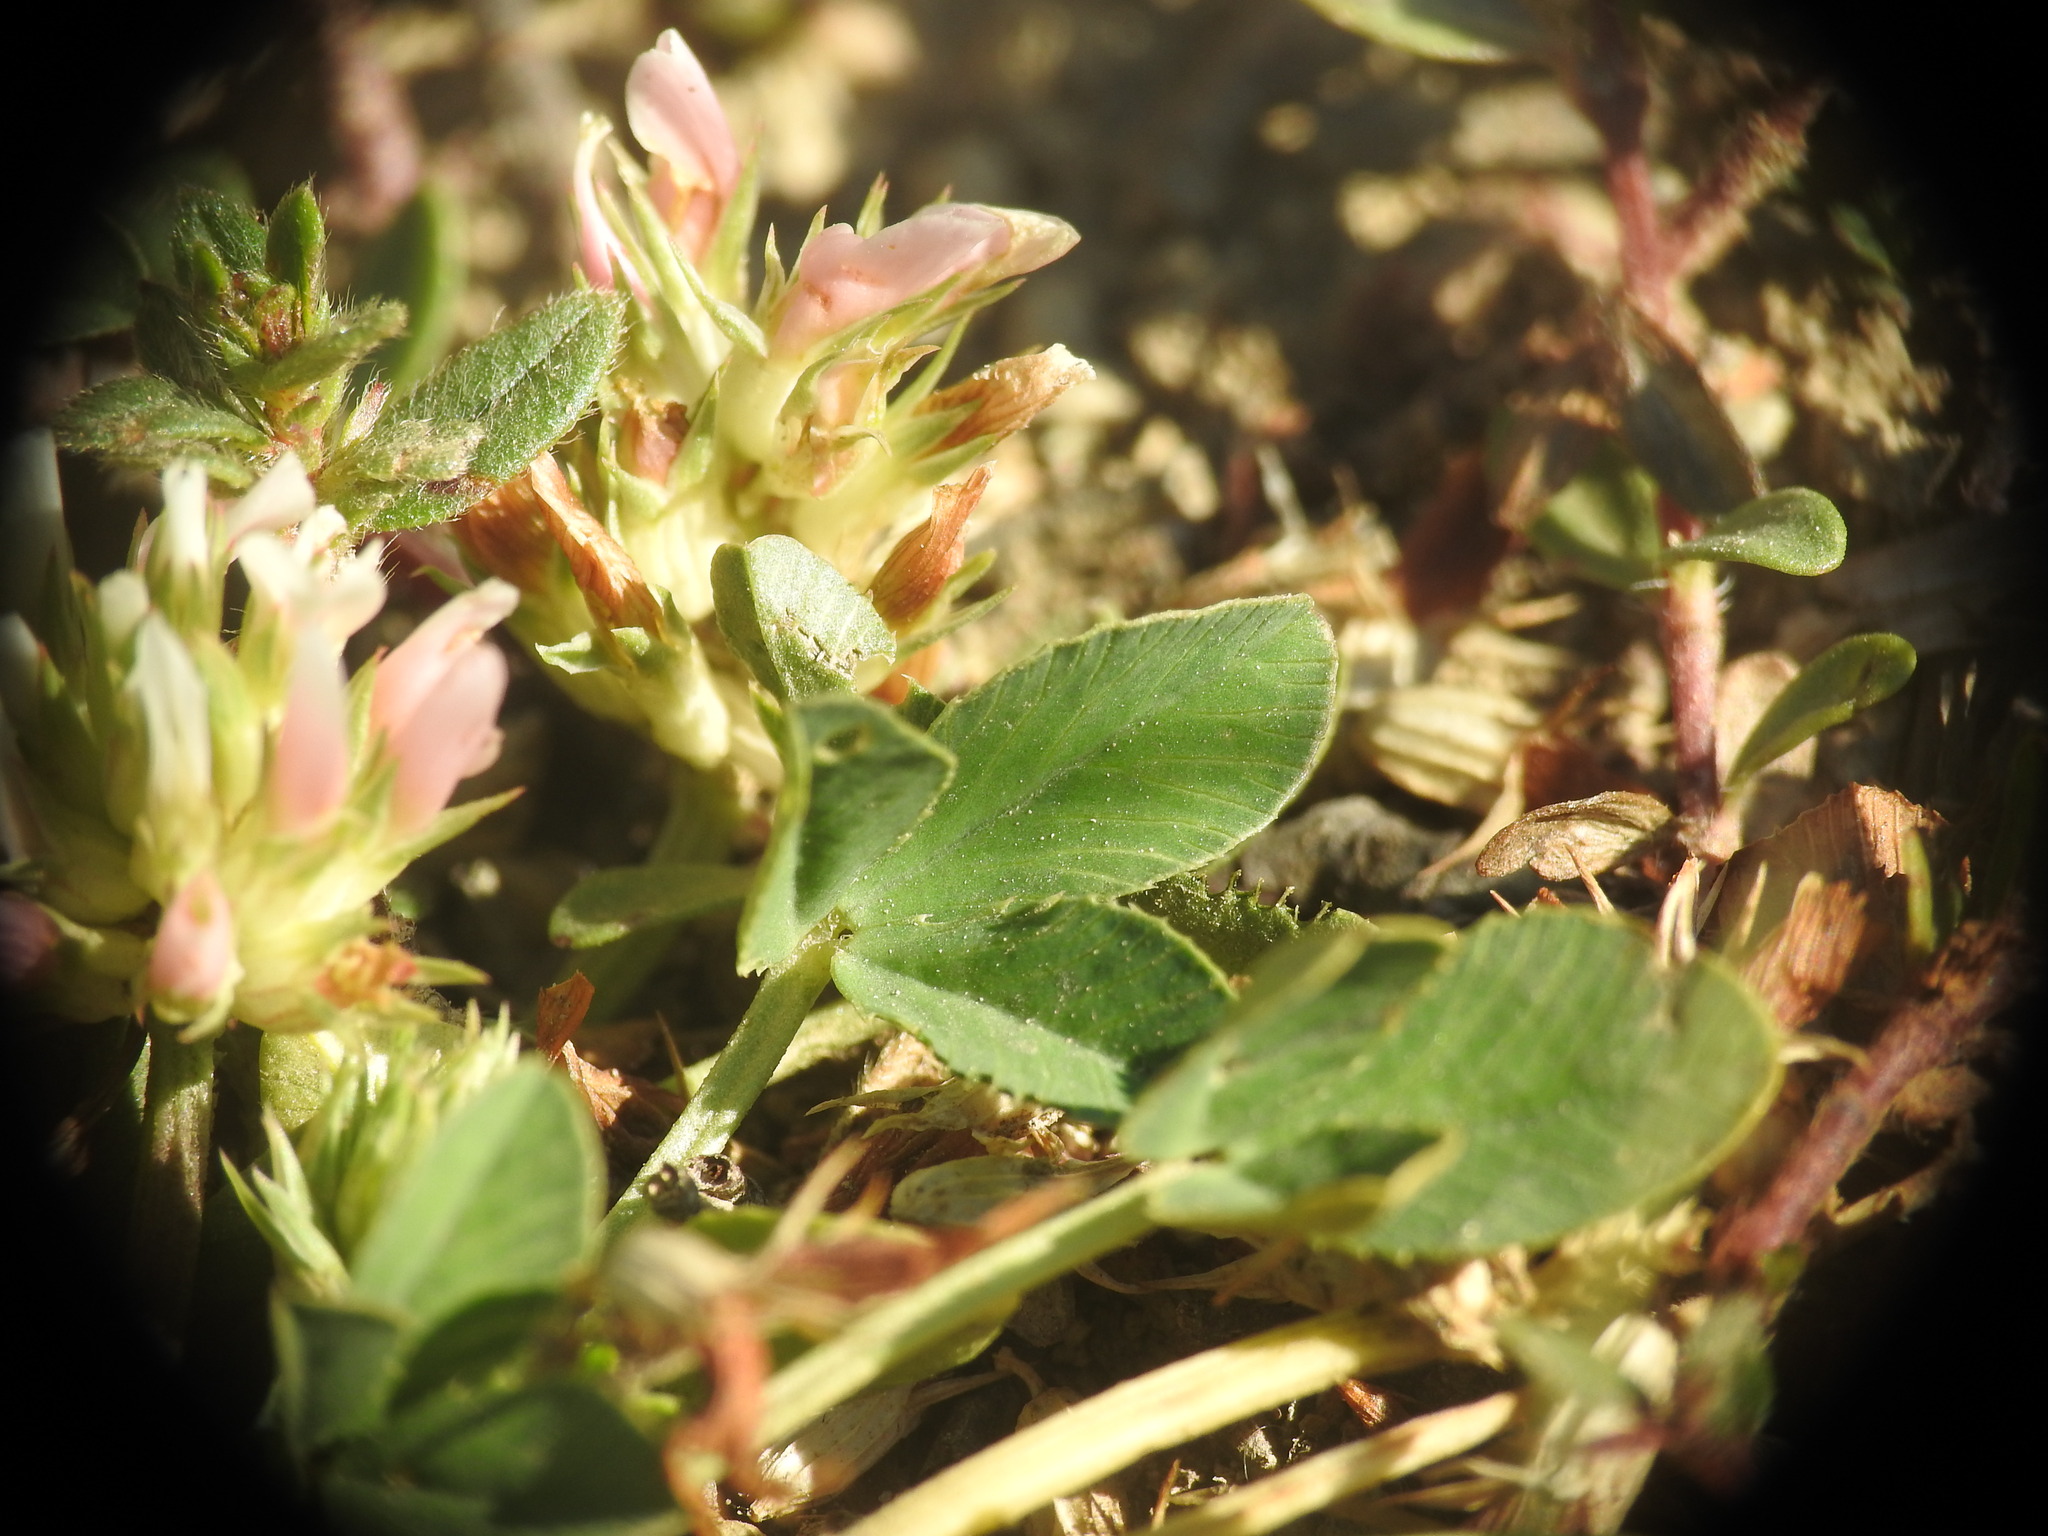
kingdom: Plantae
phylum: Tracheophyta
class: Magnoliopsida
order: Fabales
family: Fabaceae
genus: Trifolium
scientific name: Trifolium thalii
